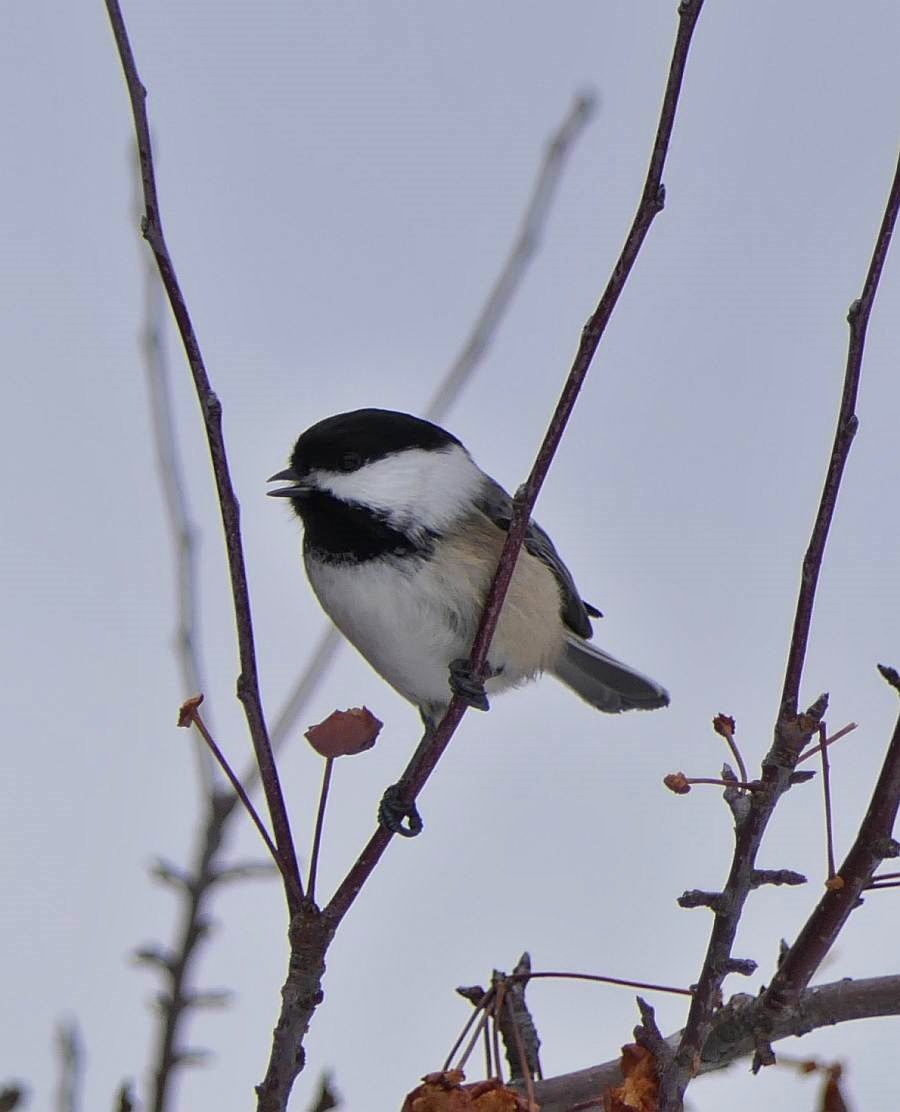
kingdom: Animalia
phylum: Chordata
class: Aves
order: Passeriformes
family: Paridae
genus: Poecile
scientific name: Poecile atricapillus
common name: Black-capped chickadee
